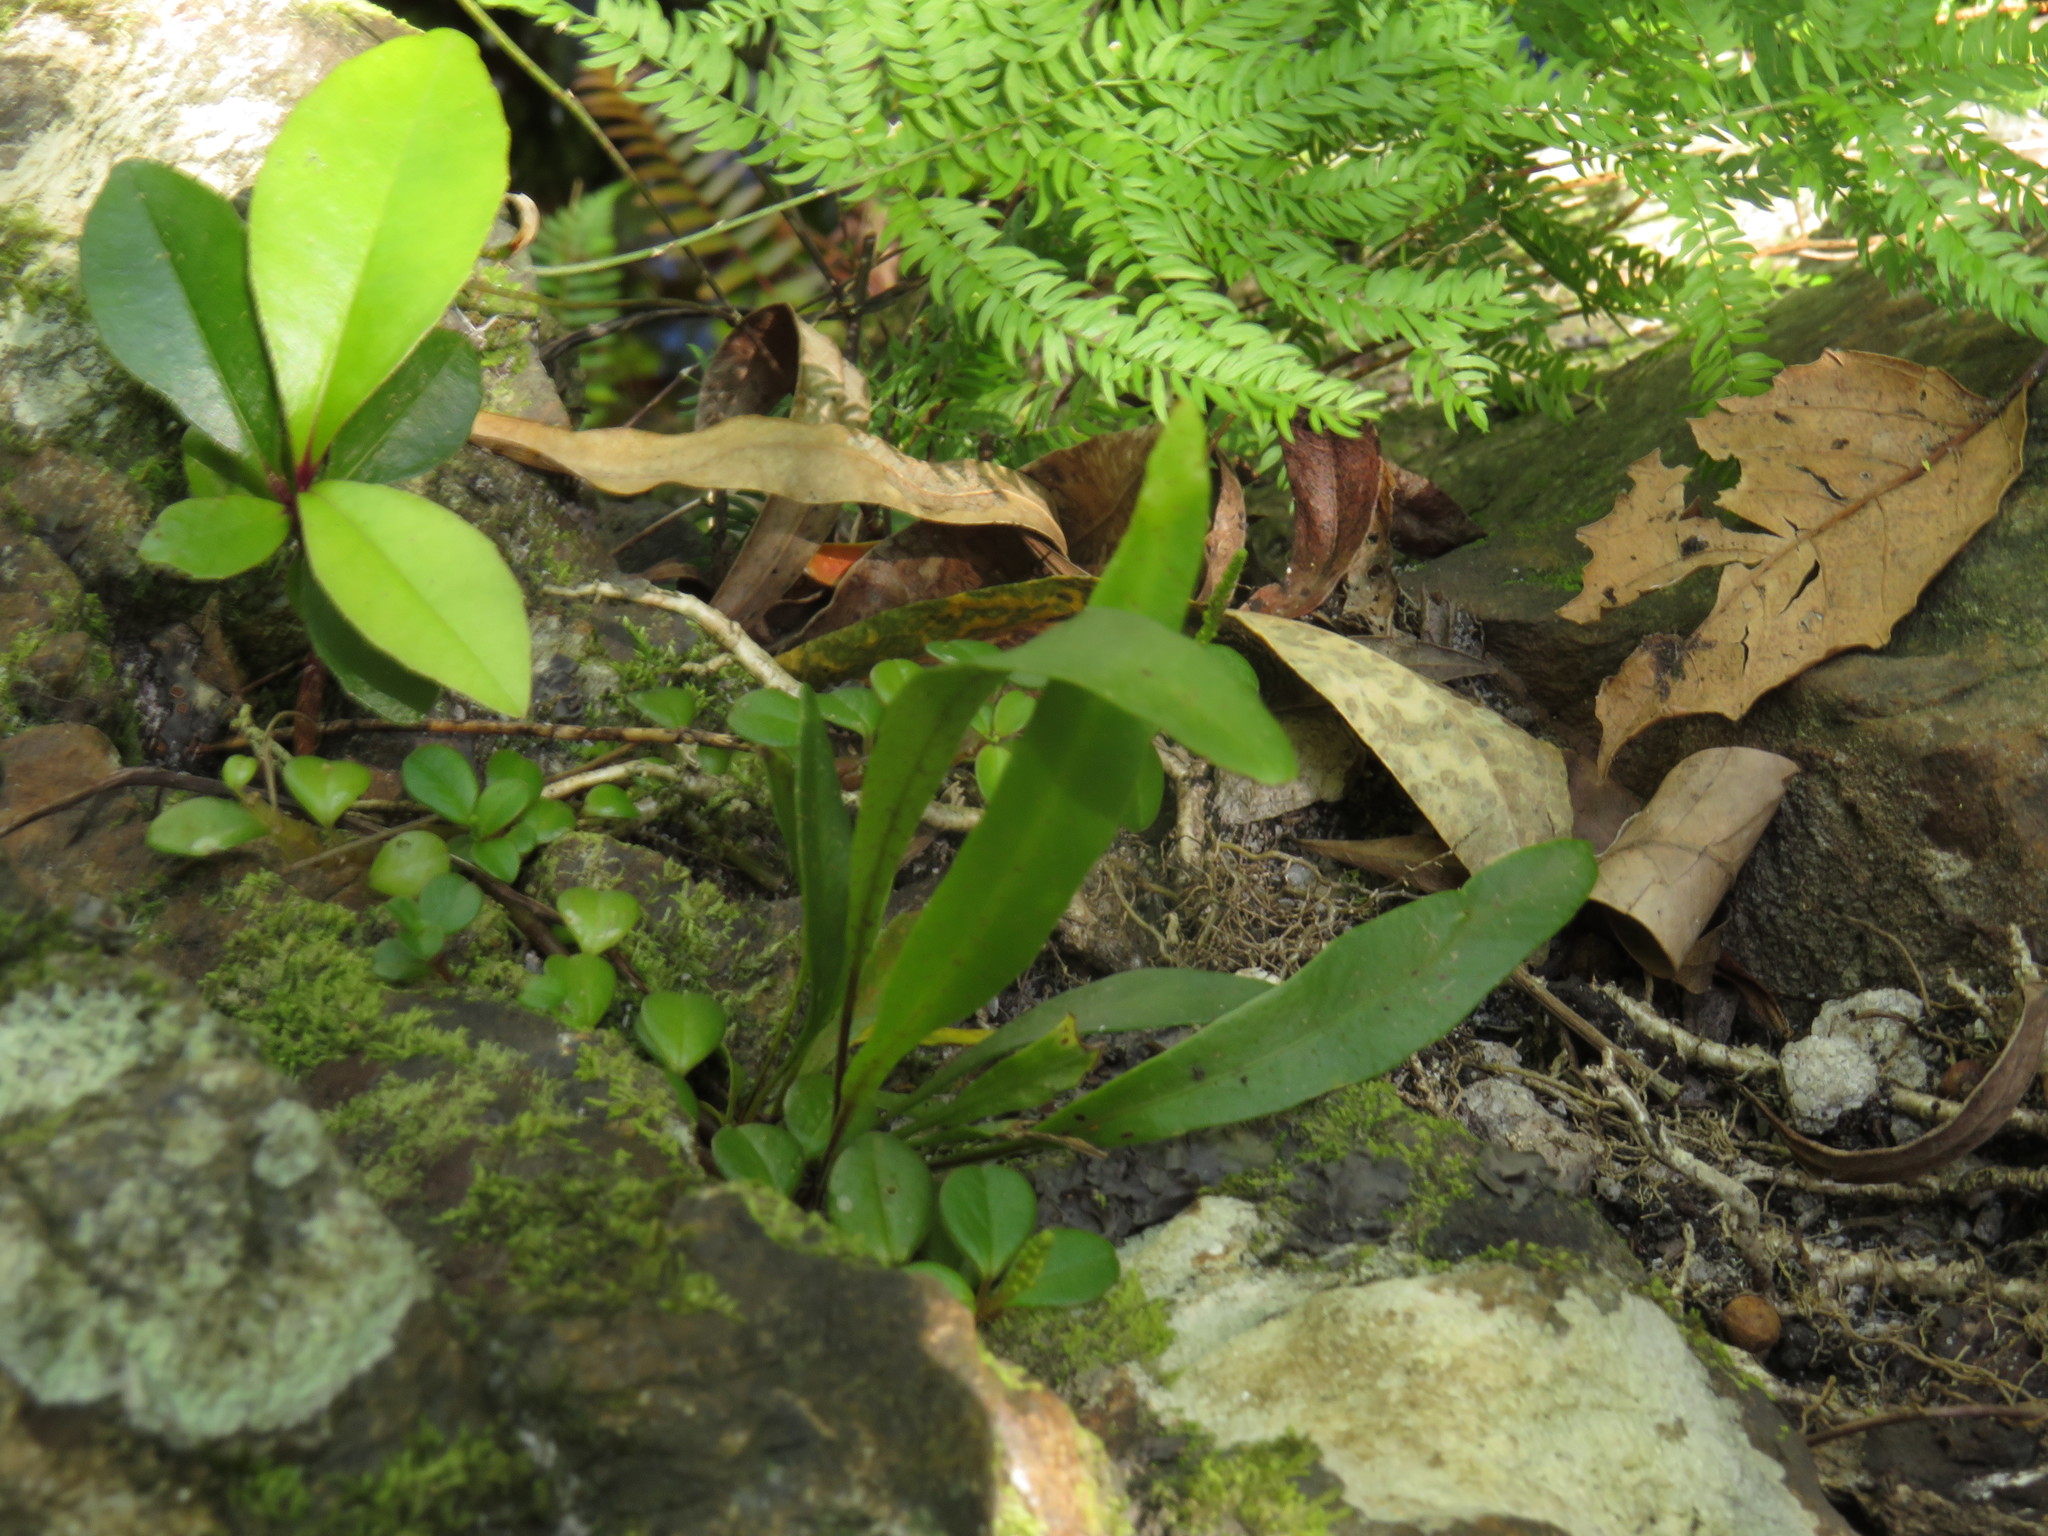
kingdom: Plantae
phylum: Tracheophyta
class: Liliopsida
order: Asparagales
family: Asparagaceae
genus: Asparagus
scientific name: Asparagus scandens
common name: Asparagus-fern
